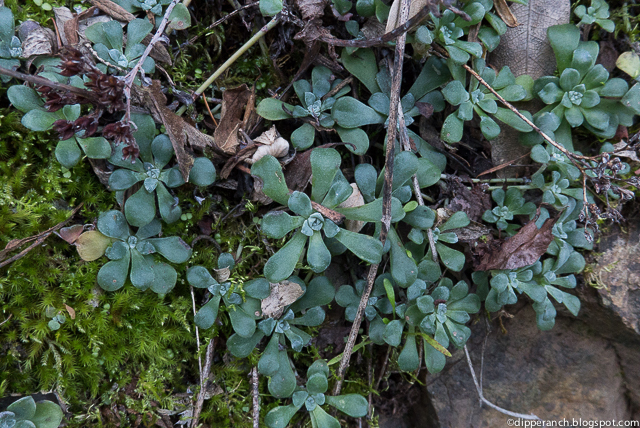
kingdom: Plantae
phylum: Tracheophyta
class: Magnoliopsida
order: Saxifragales
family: Crassulaceae
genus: Sedum
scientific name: Sedum spathulifolium
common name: Colorado stonecrop
